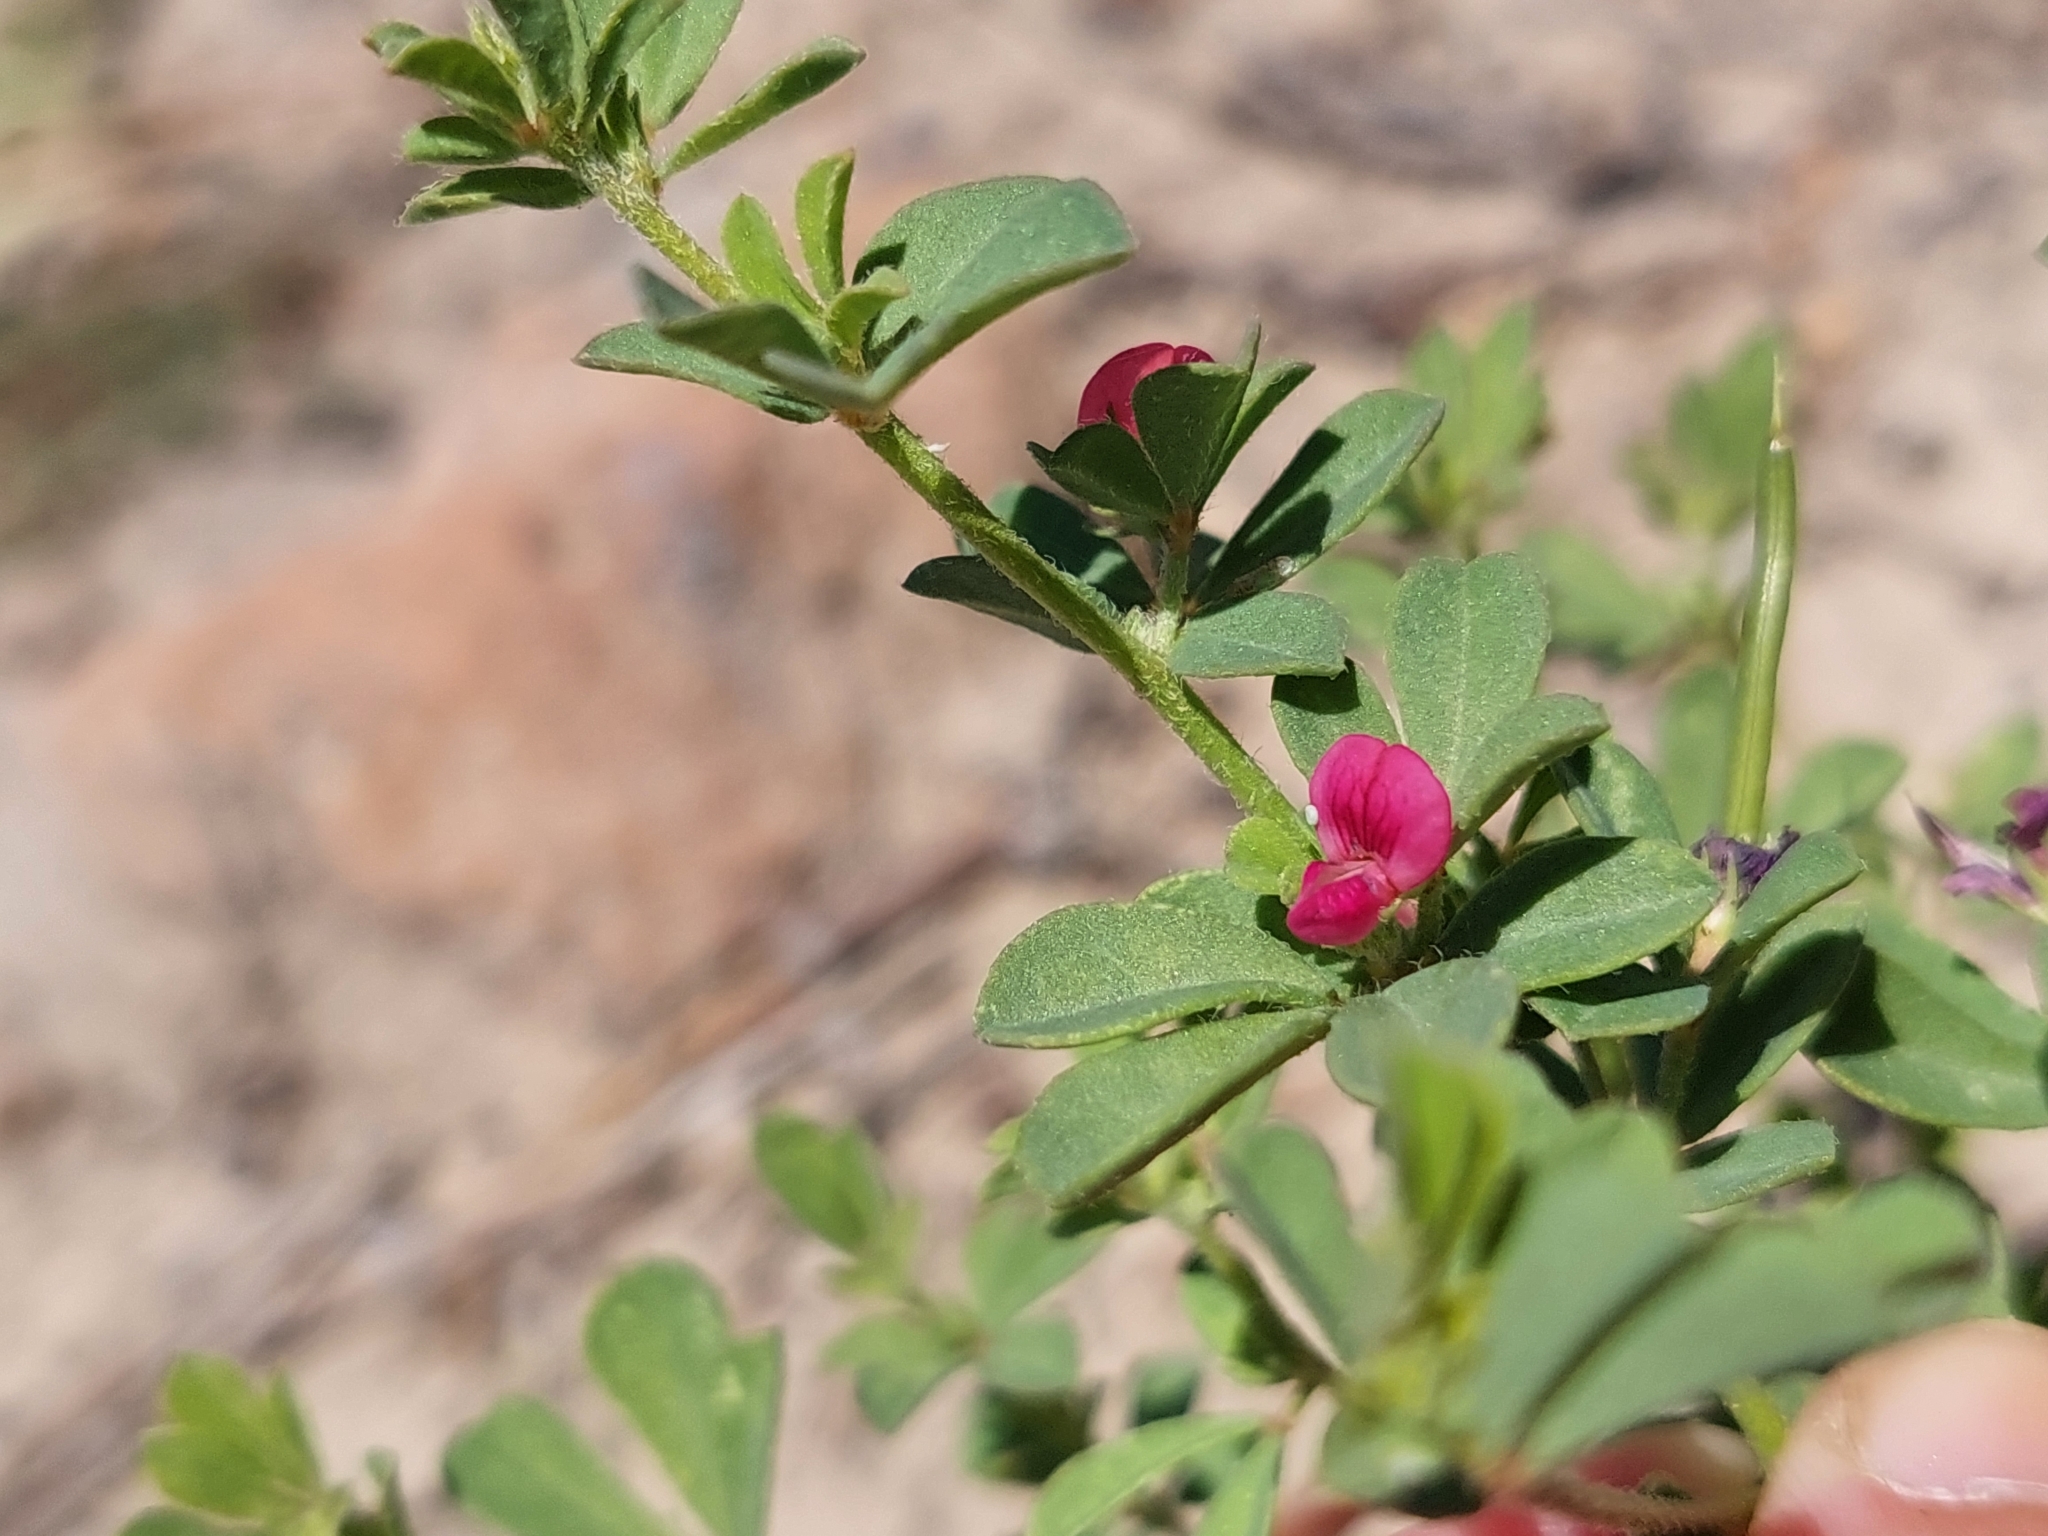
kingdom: Plantae
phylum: Tracheophyta
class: Magnoliopsida
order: Fabales
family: Fabaceae
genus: Lotus
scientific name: Lotus cruentus
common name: Red bird's-foot trefoil
